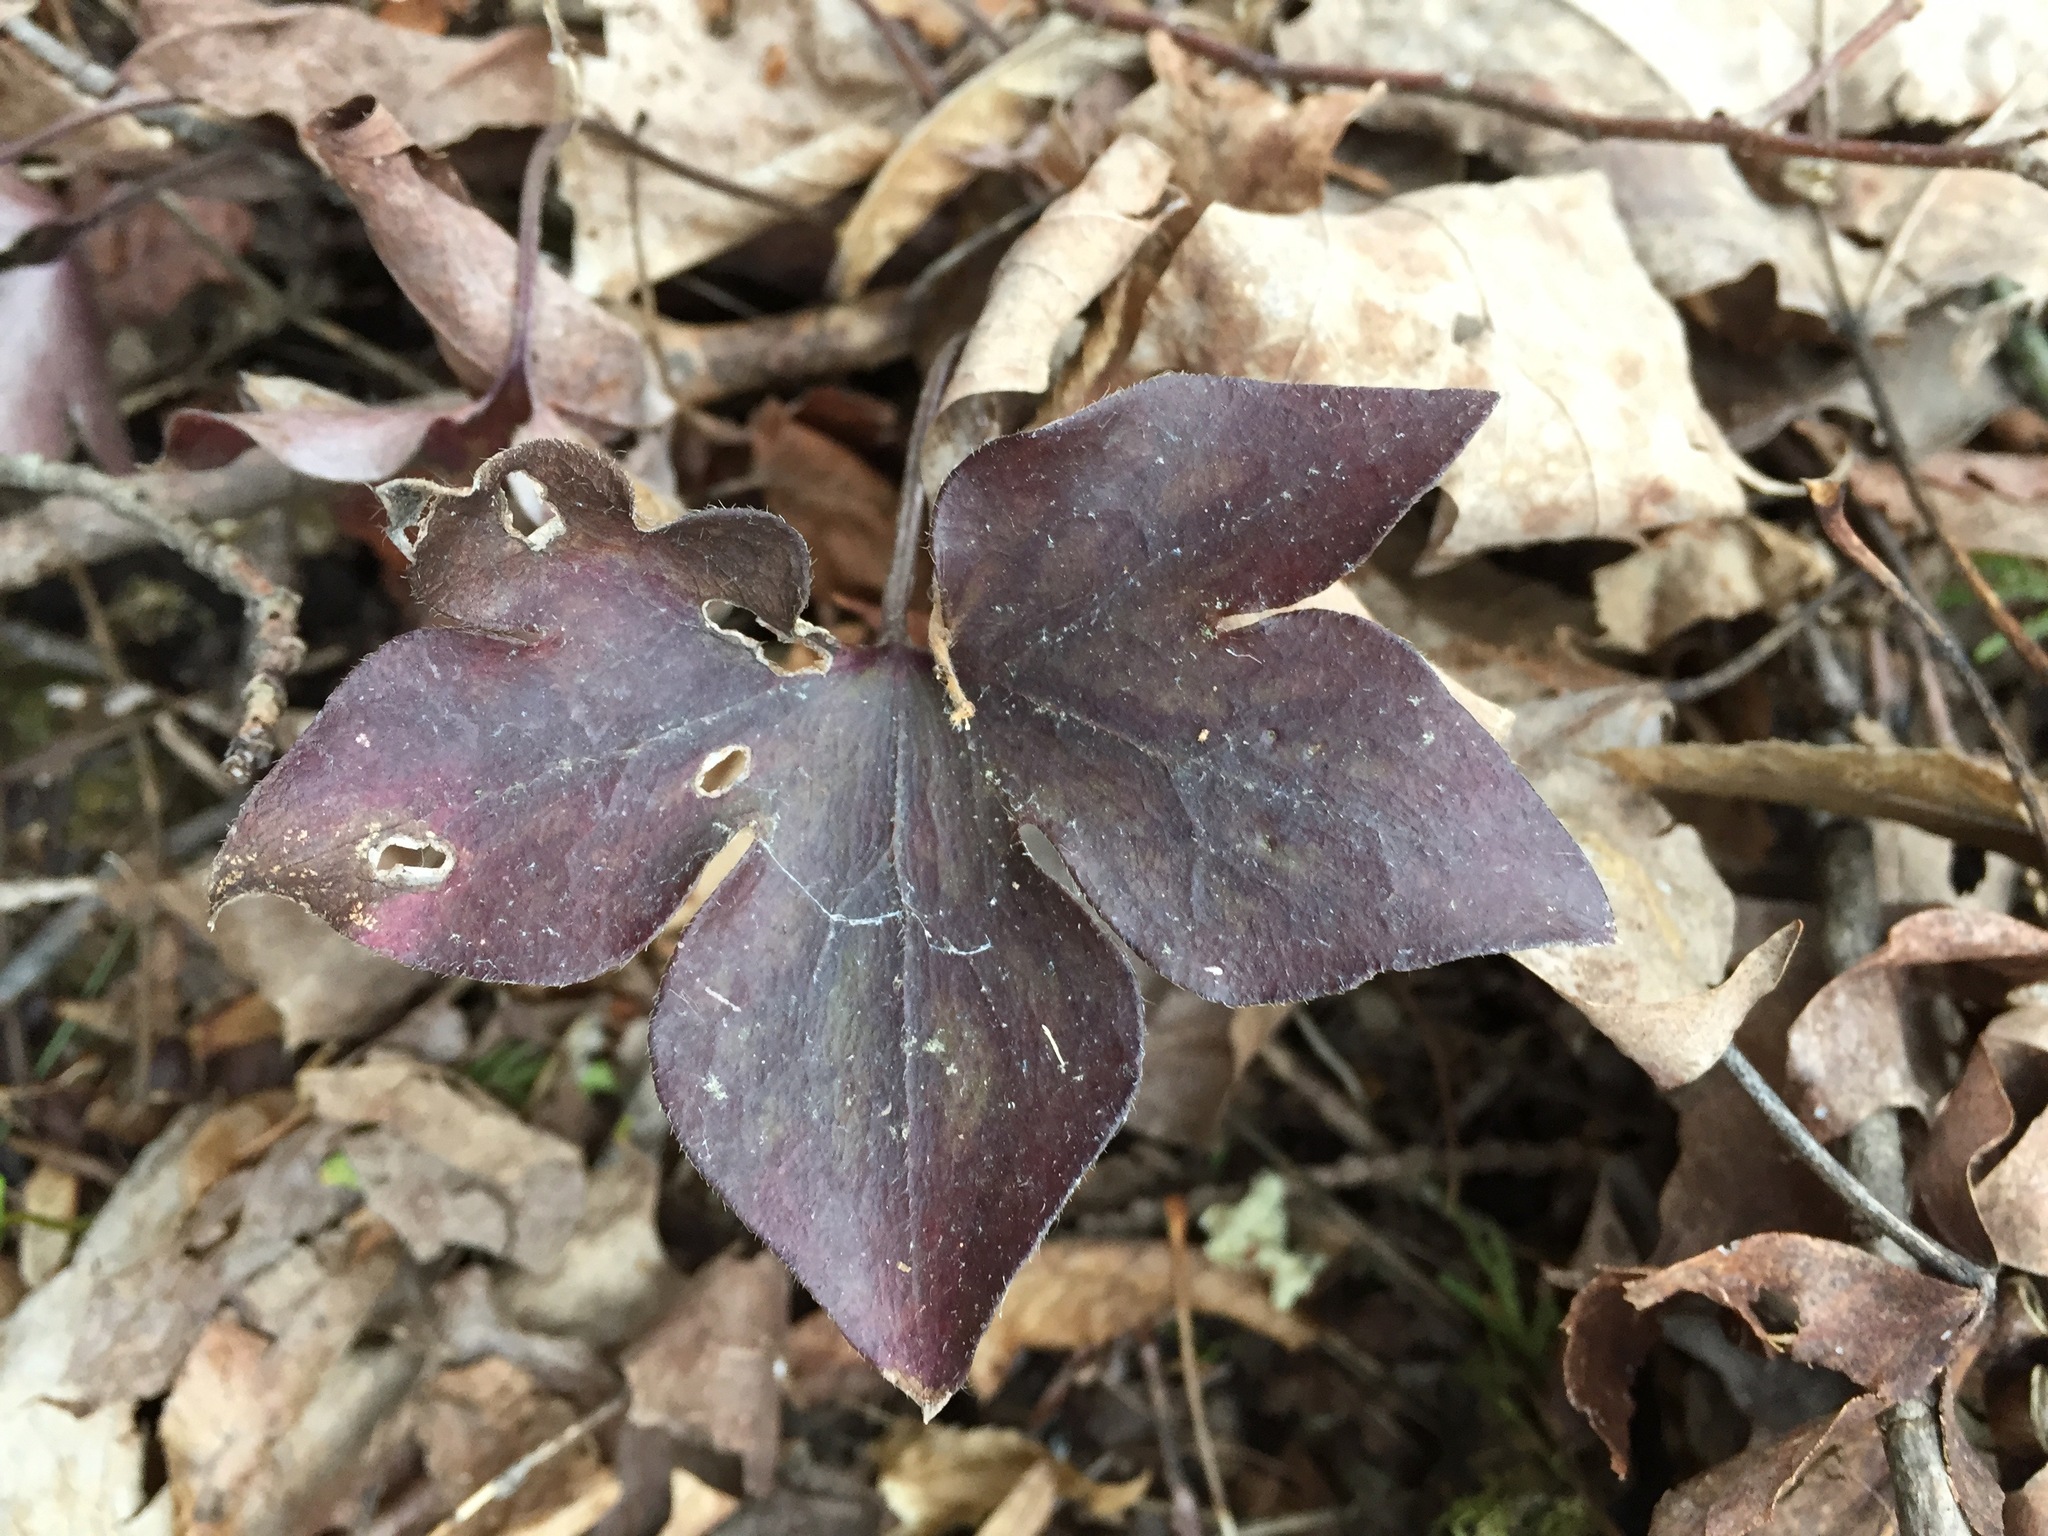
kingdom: Plantae
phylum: Tracheophyta
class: Magnoliopsida
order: Ranunculales
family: Ranunculaceae
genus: Hepatica
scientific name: Hepatica acutiloba
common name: Sharp-lobed hepatica
